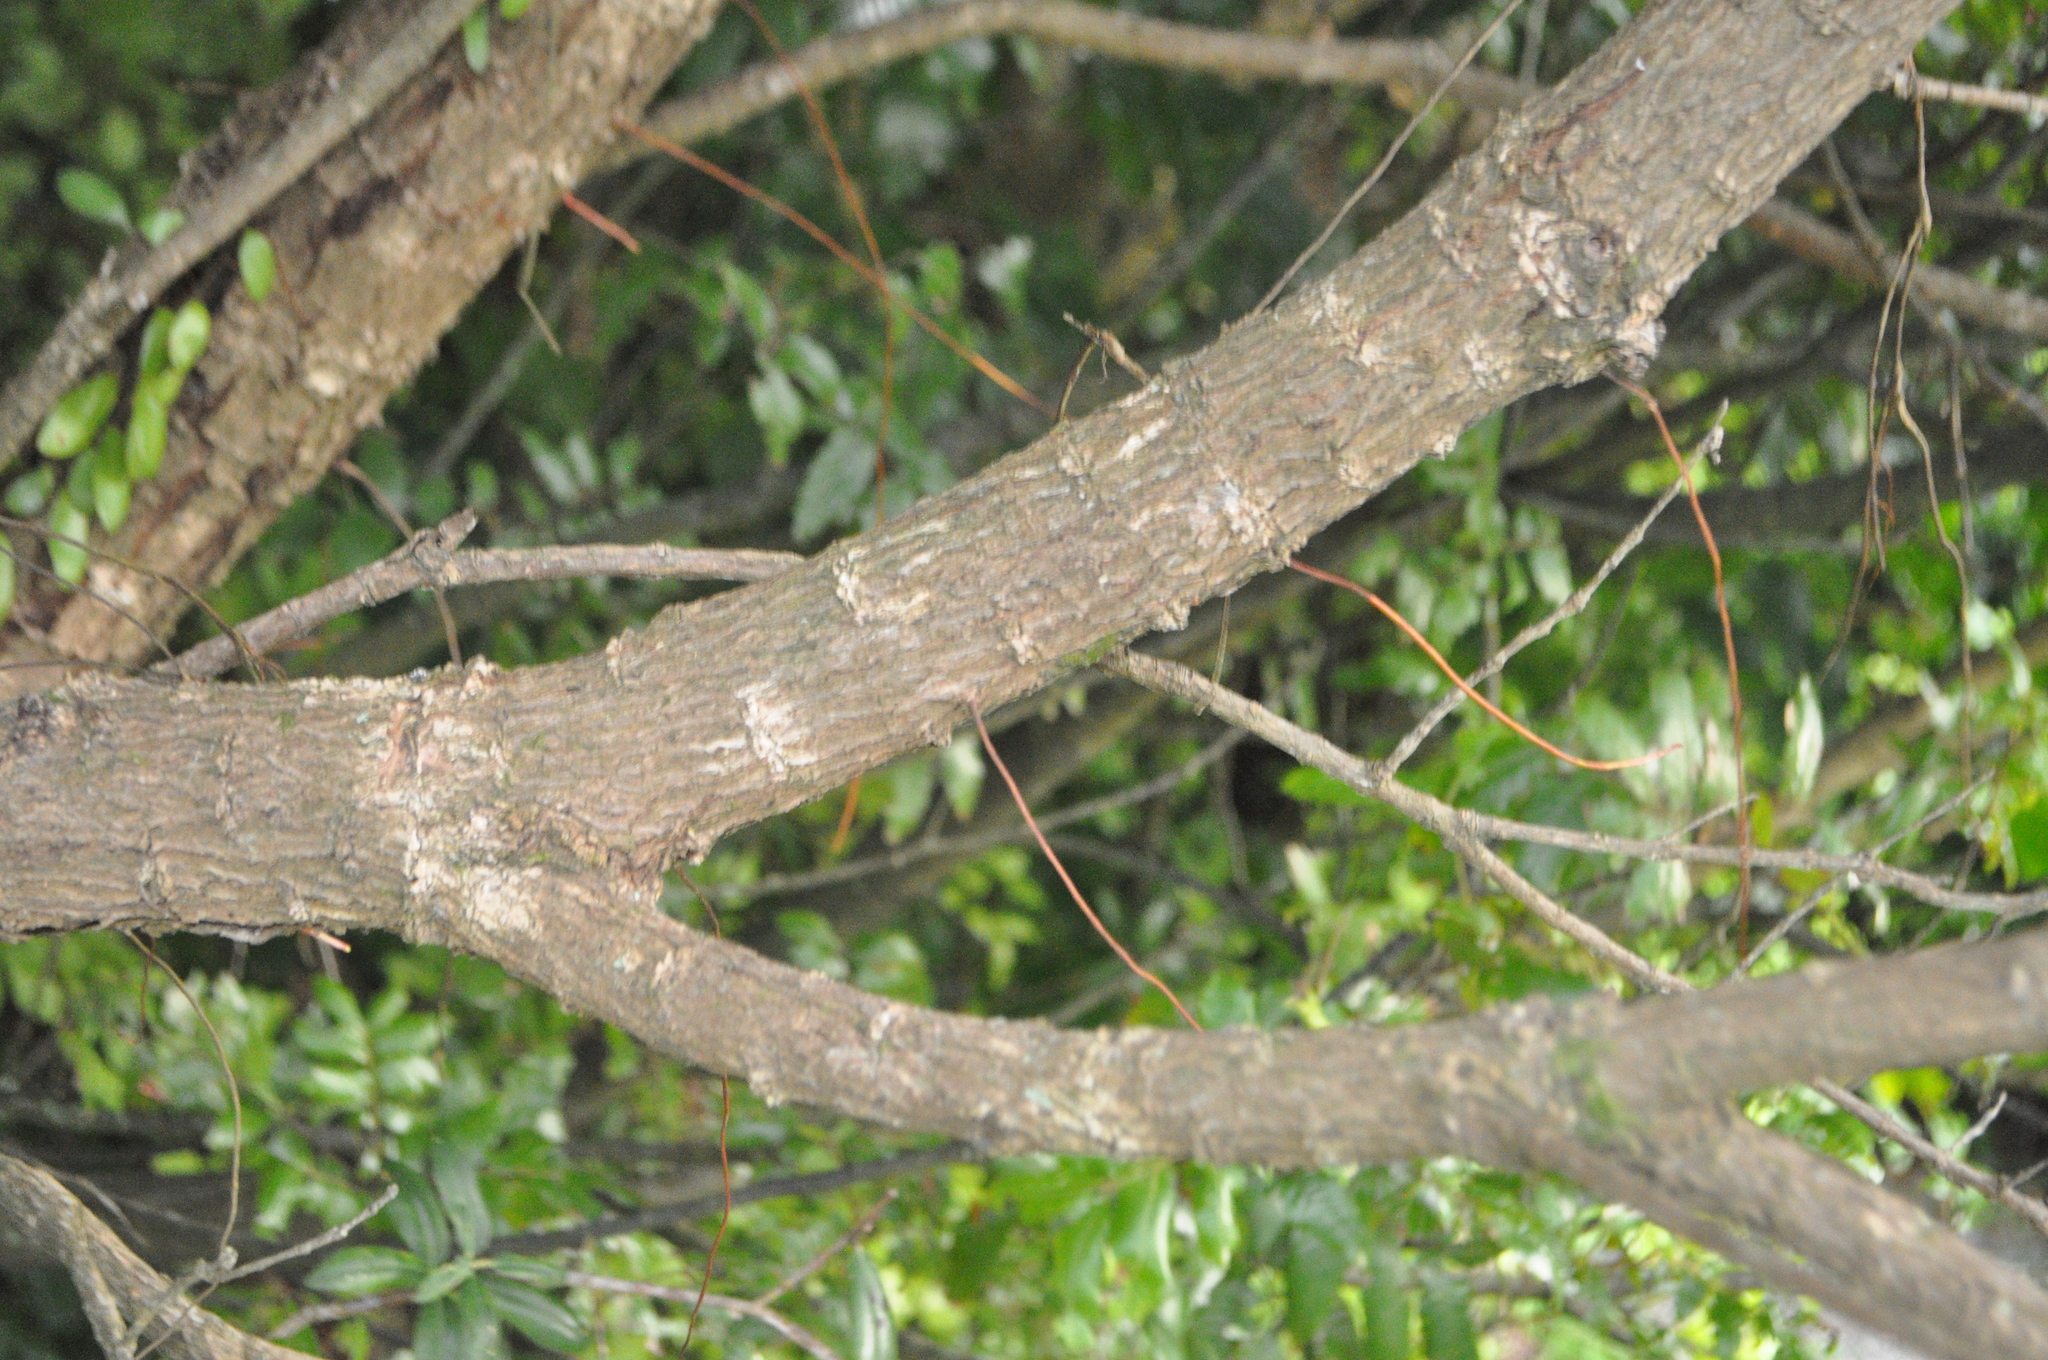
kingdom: Plantae
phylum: Tracheophyta
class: Magnoliopsida
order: Myrtales
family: Myrtaceae
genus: Metrosideros
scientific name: Metrosideros excelsa
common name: New zealand christmastree
